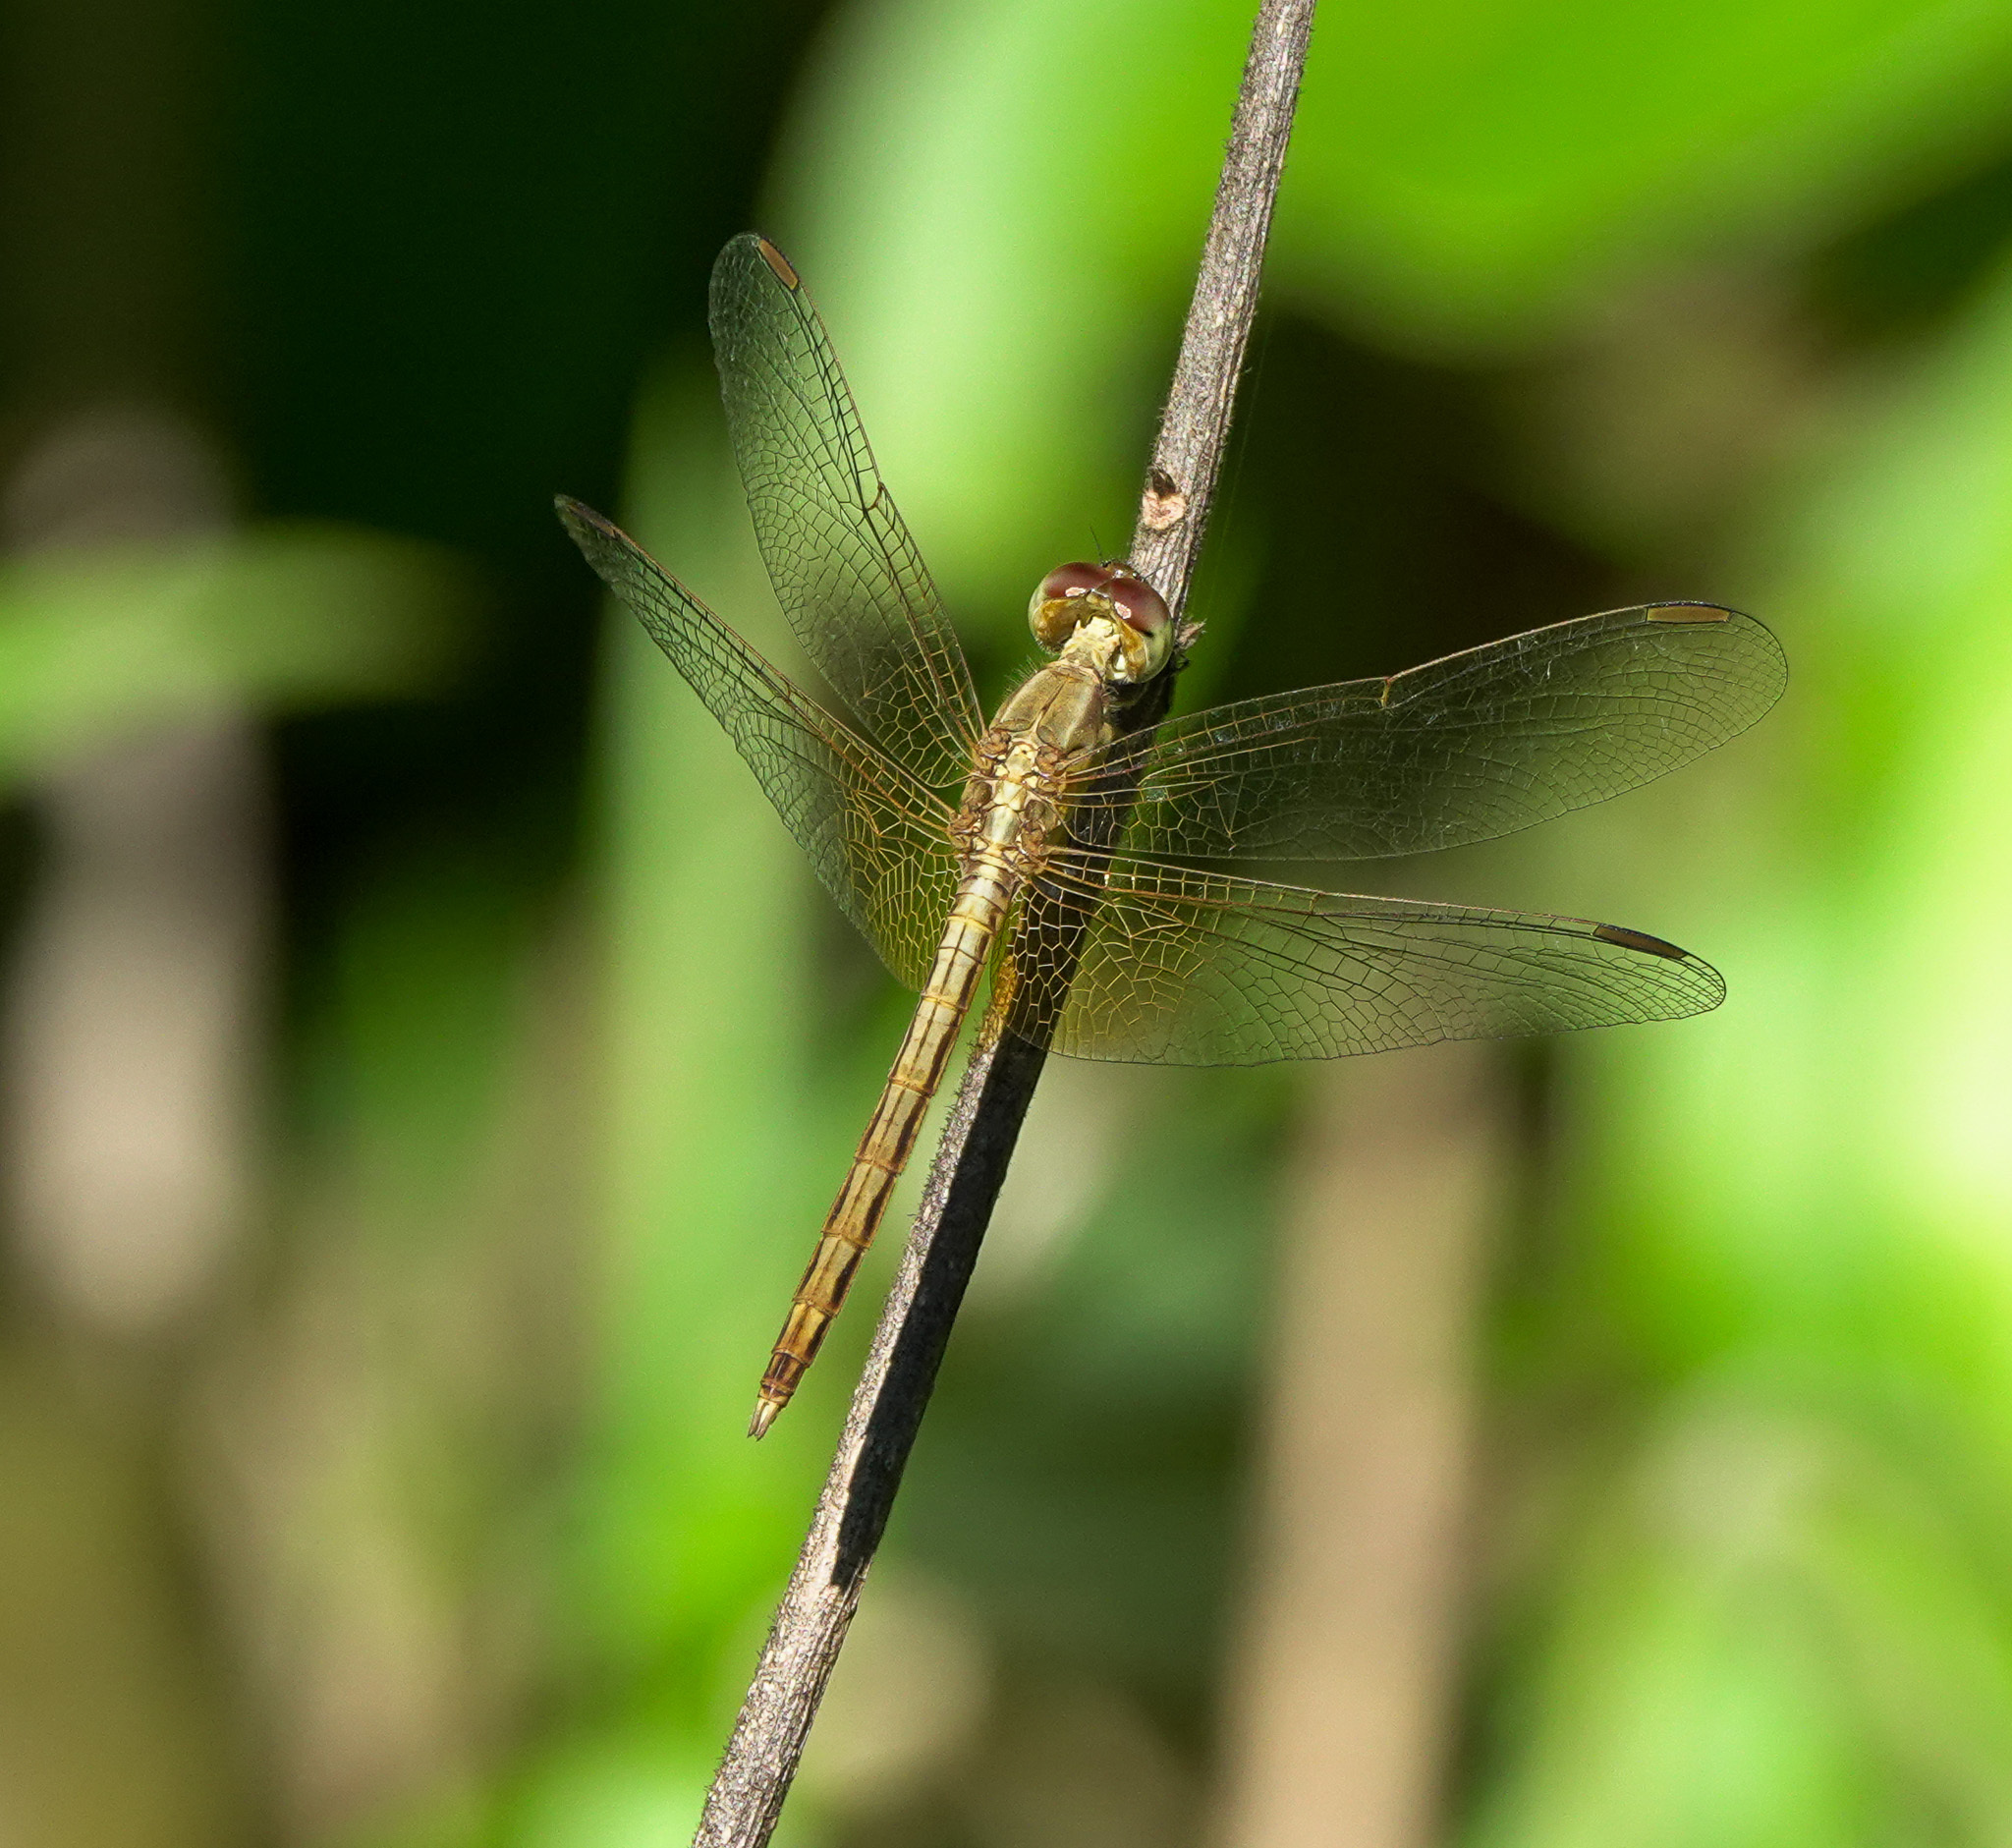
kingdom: Animalia
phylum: Arthropoda
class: Insecta
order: Odonata
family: Libellulidae
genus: Neurothemis
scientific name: Neurothemis intermedia
